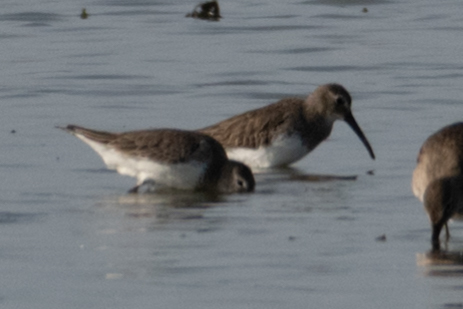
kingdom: Animalia
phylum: Chordata
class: Aves
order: Charadriiformes
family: Scolopacidae
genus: Calidris
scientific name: Calidris alpina
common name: Dunlin
